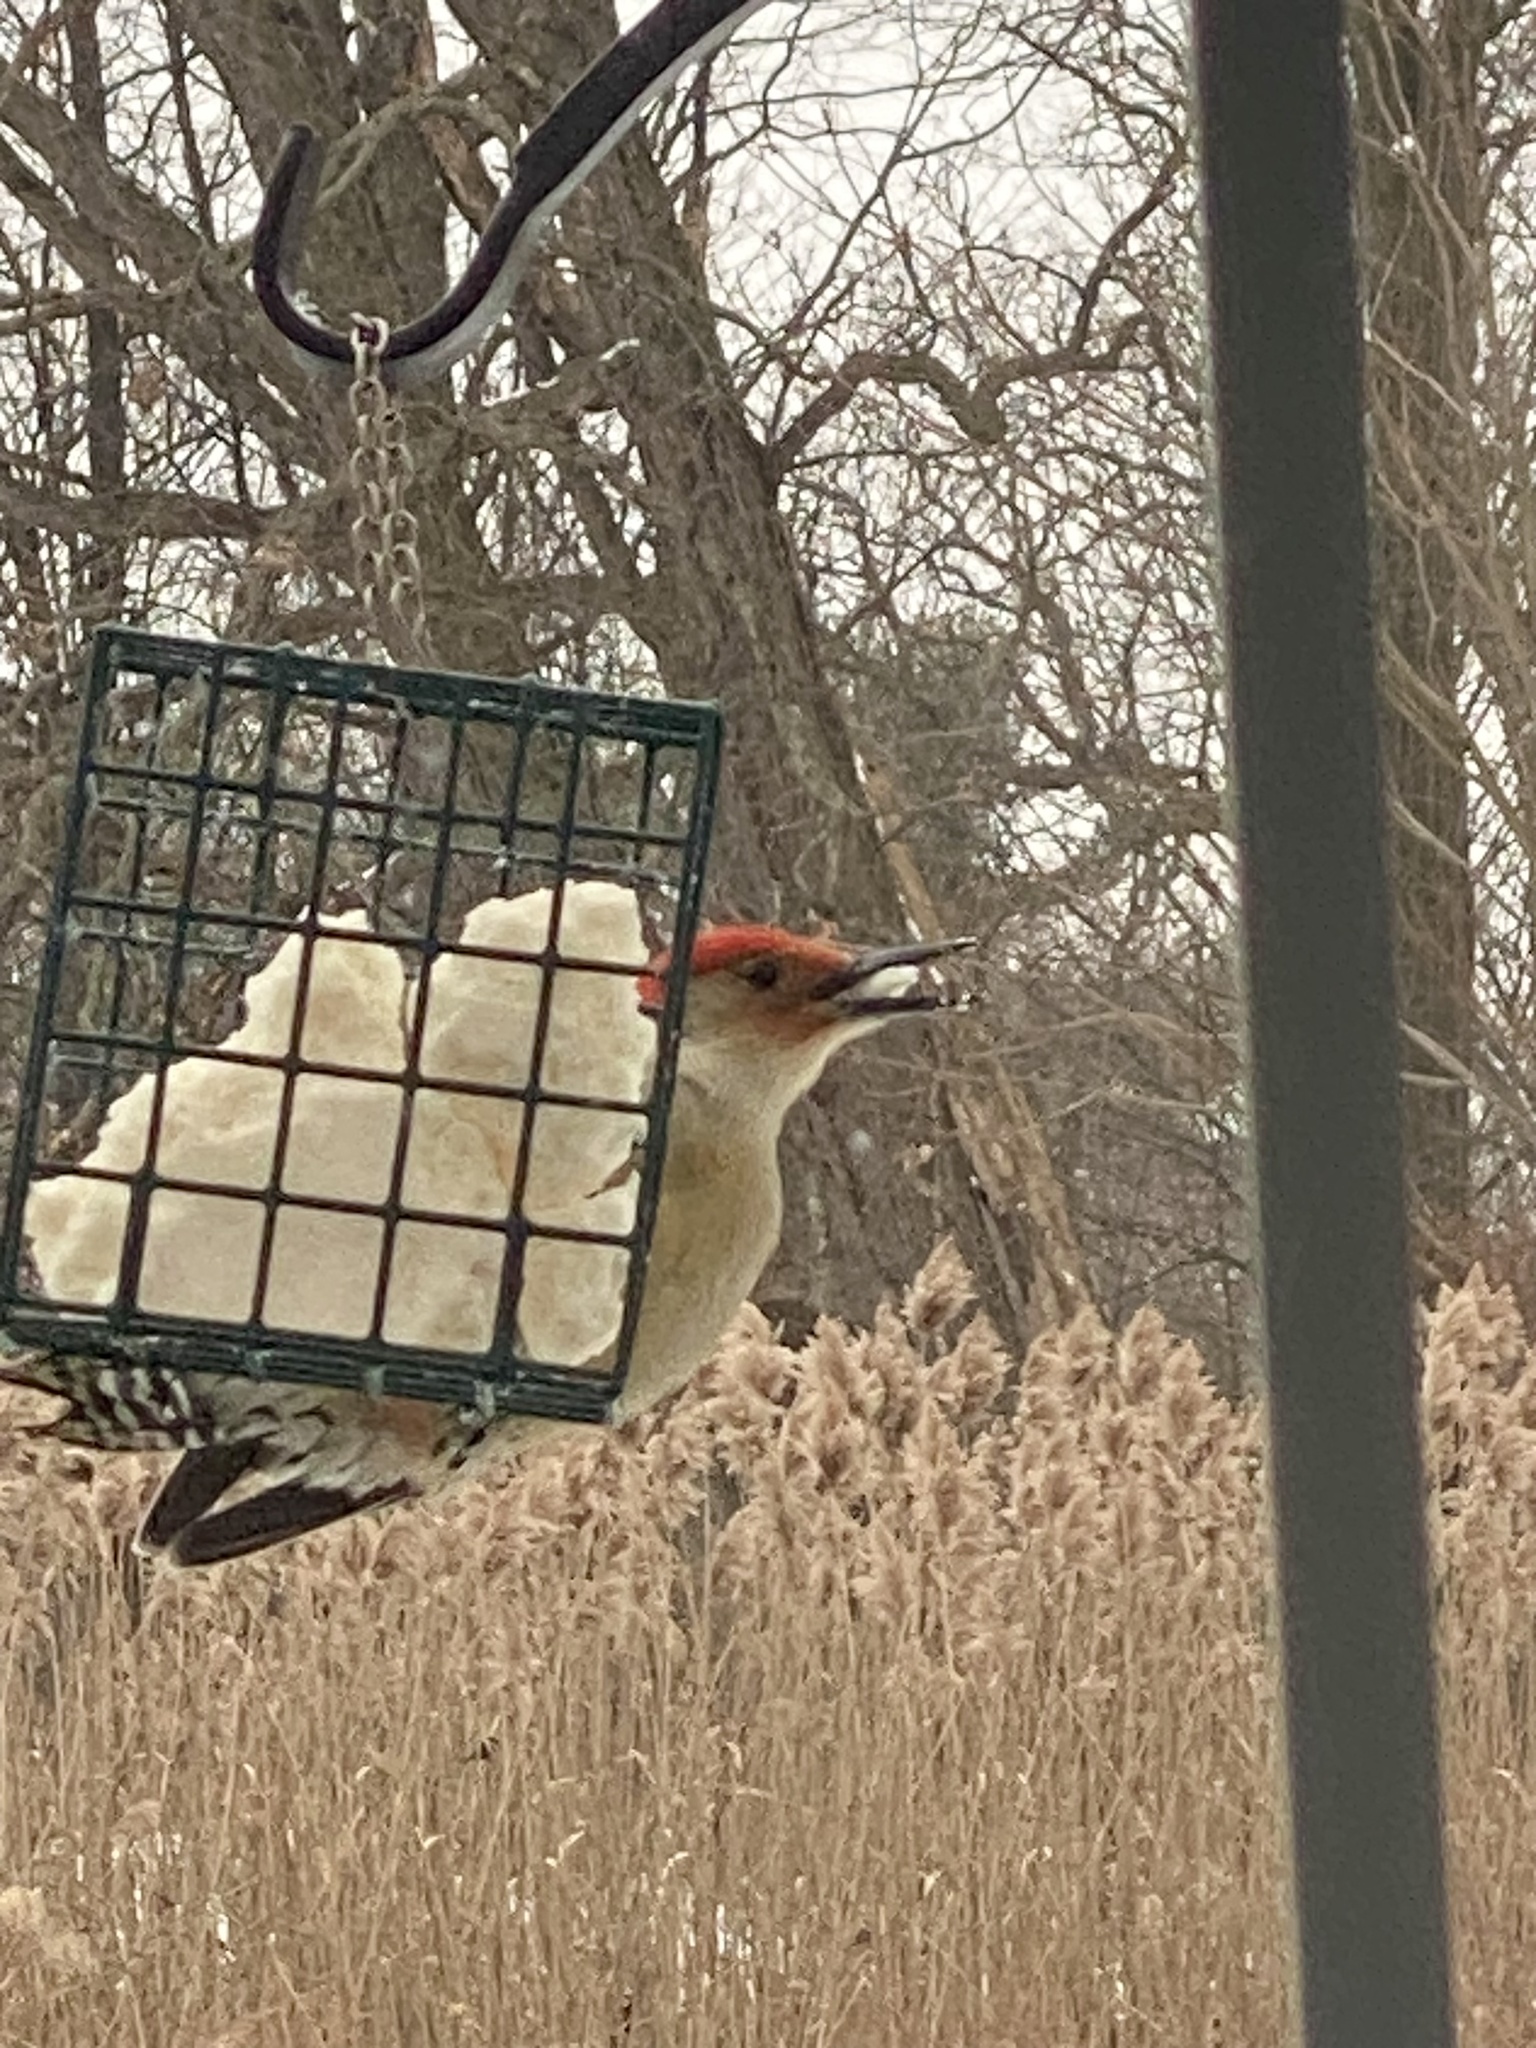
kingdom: Animalia
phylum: Chordata
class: Aves
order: Piciformes
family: Picidae
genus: Melanerpes
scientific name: Melanerpes carolinus
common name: Red-bellied woodpecker
